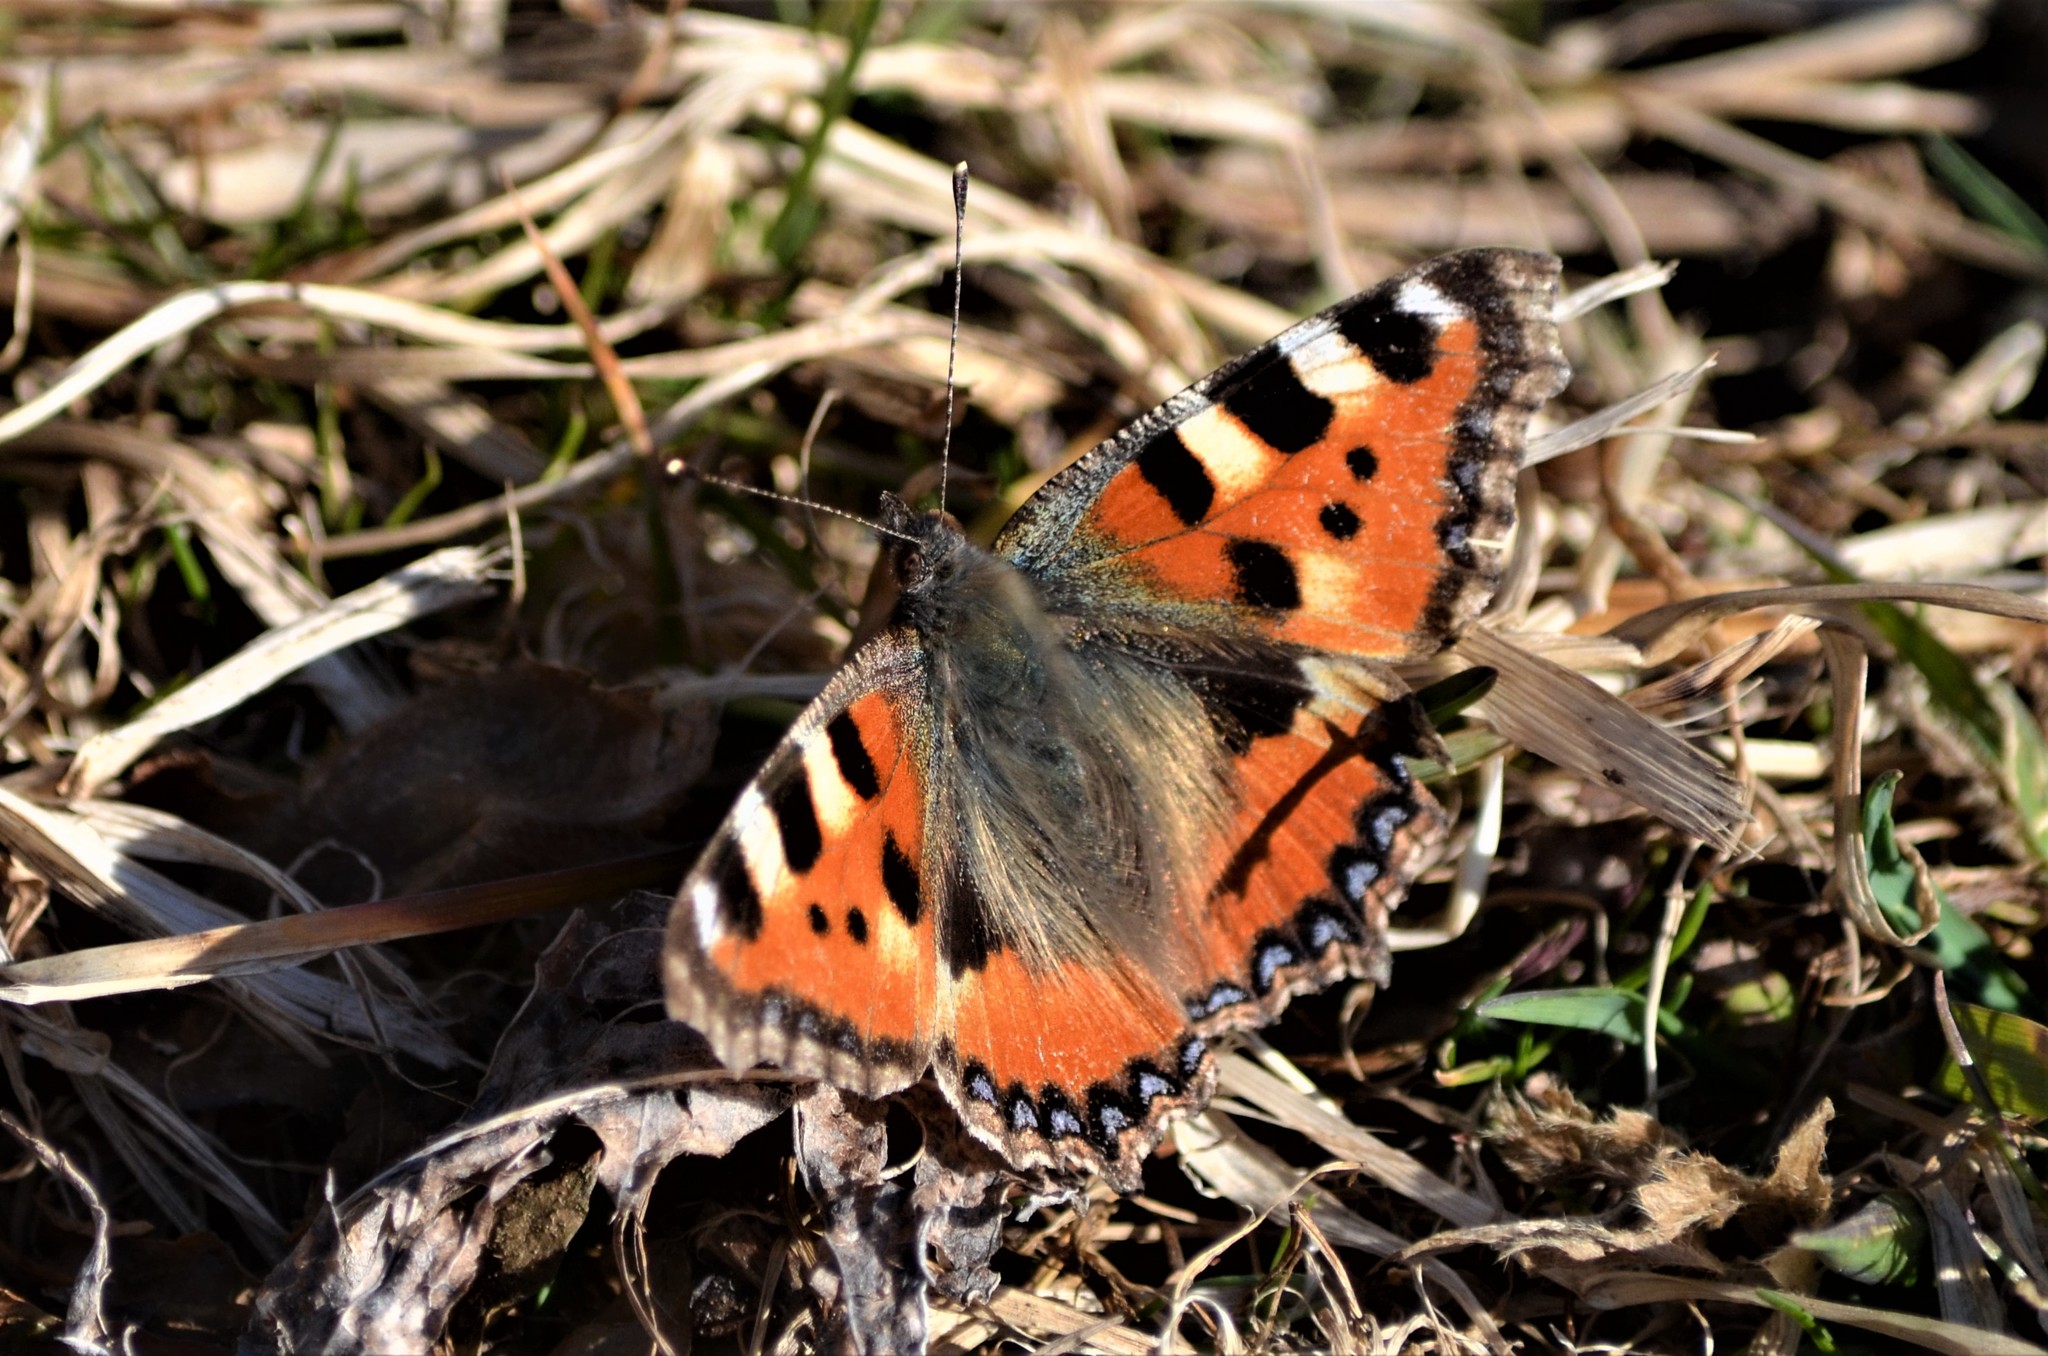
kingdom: Animalia
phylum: Arthropoda
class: Insecta
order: Lepidoptera
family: Nymphalidae
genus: Aglais
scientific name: Aglais urticae
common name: Small tortoiseshell
